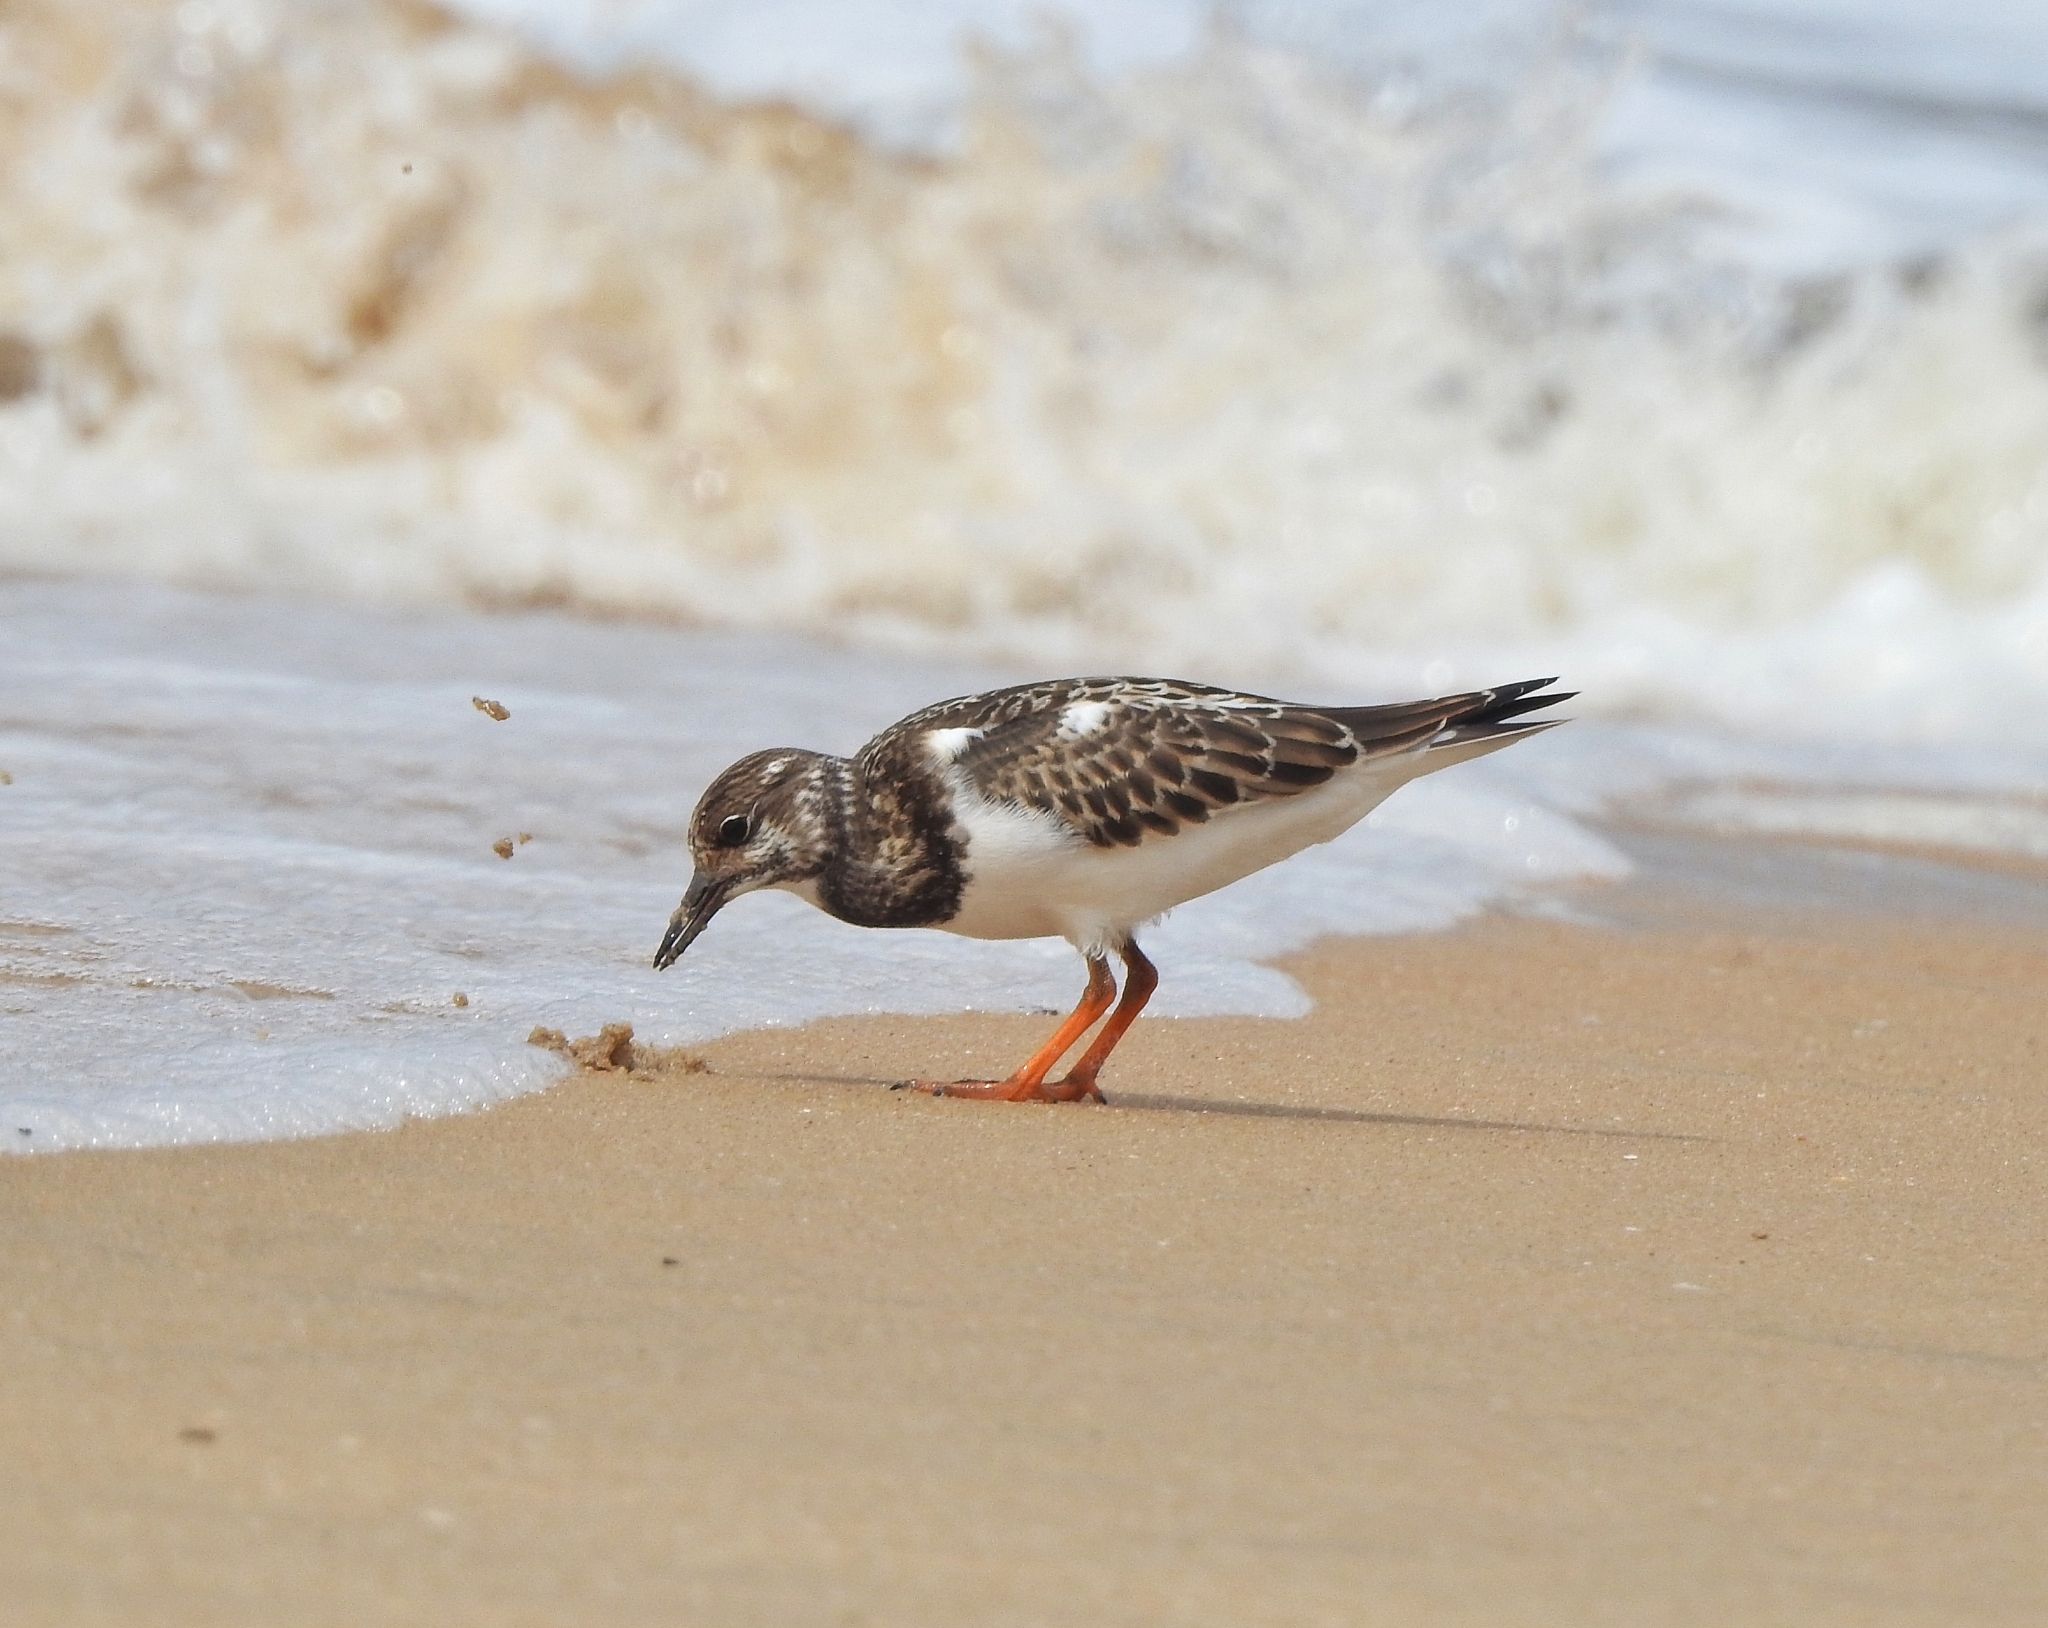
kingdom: Animalia
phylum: Chordata
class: Aves
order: Charadriiformes
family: Scolopacidae
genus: Arenaria
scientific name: Arenaria interpres
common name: Ruddy turnstone
